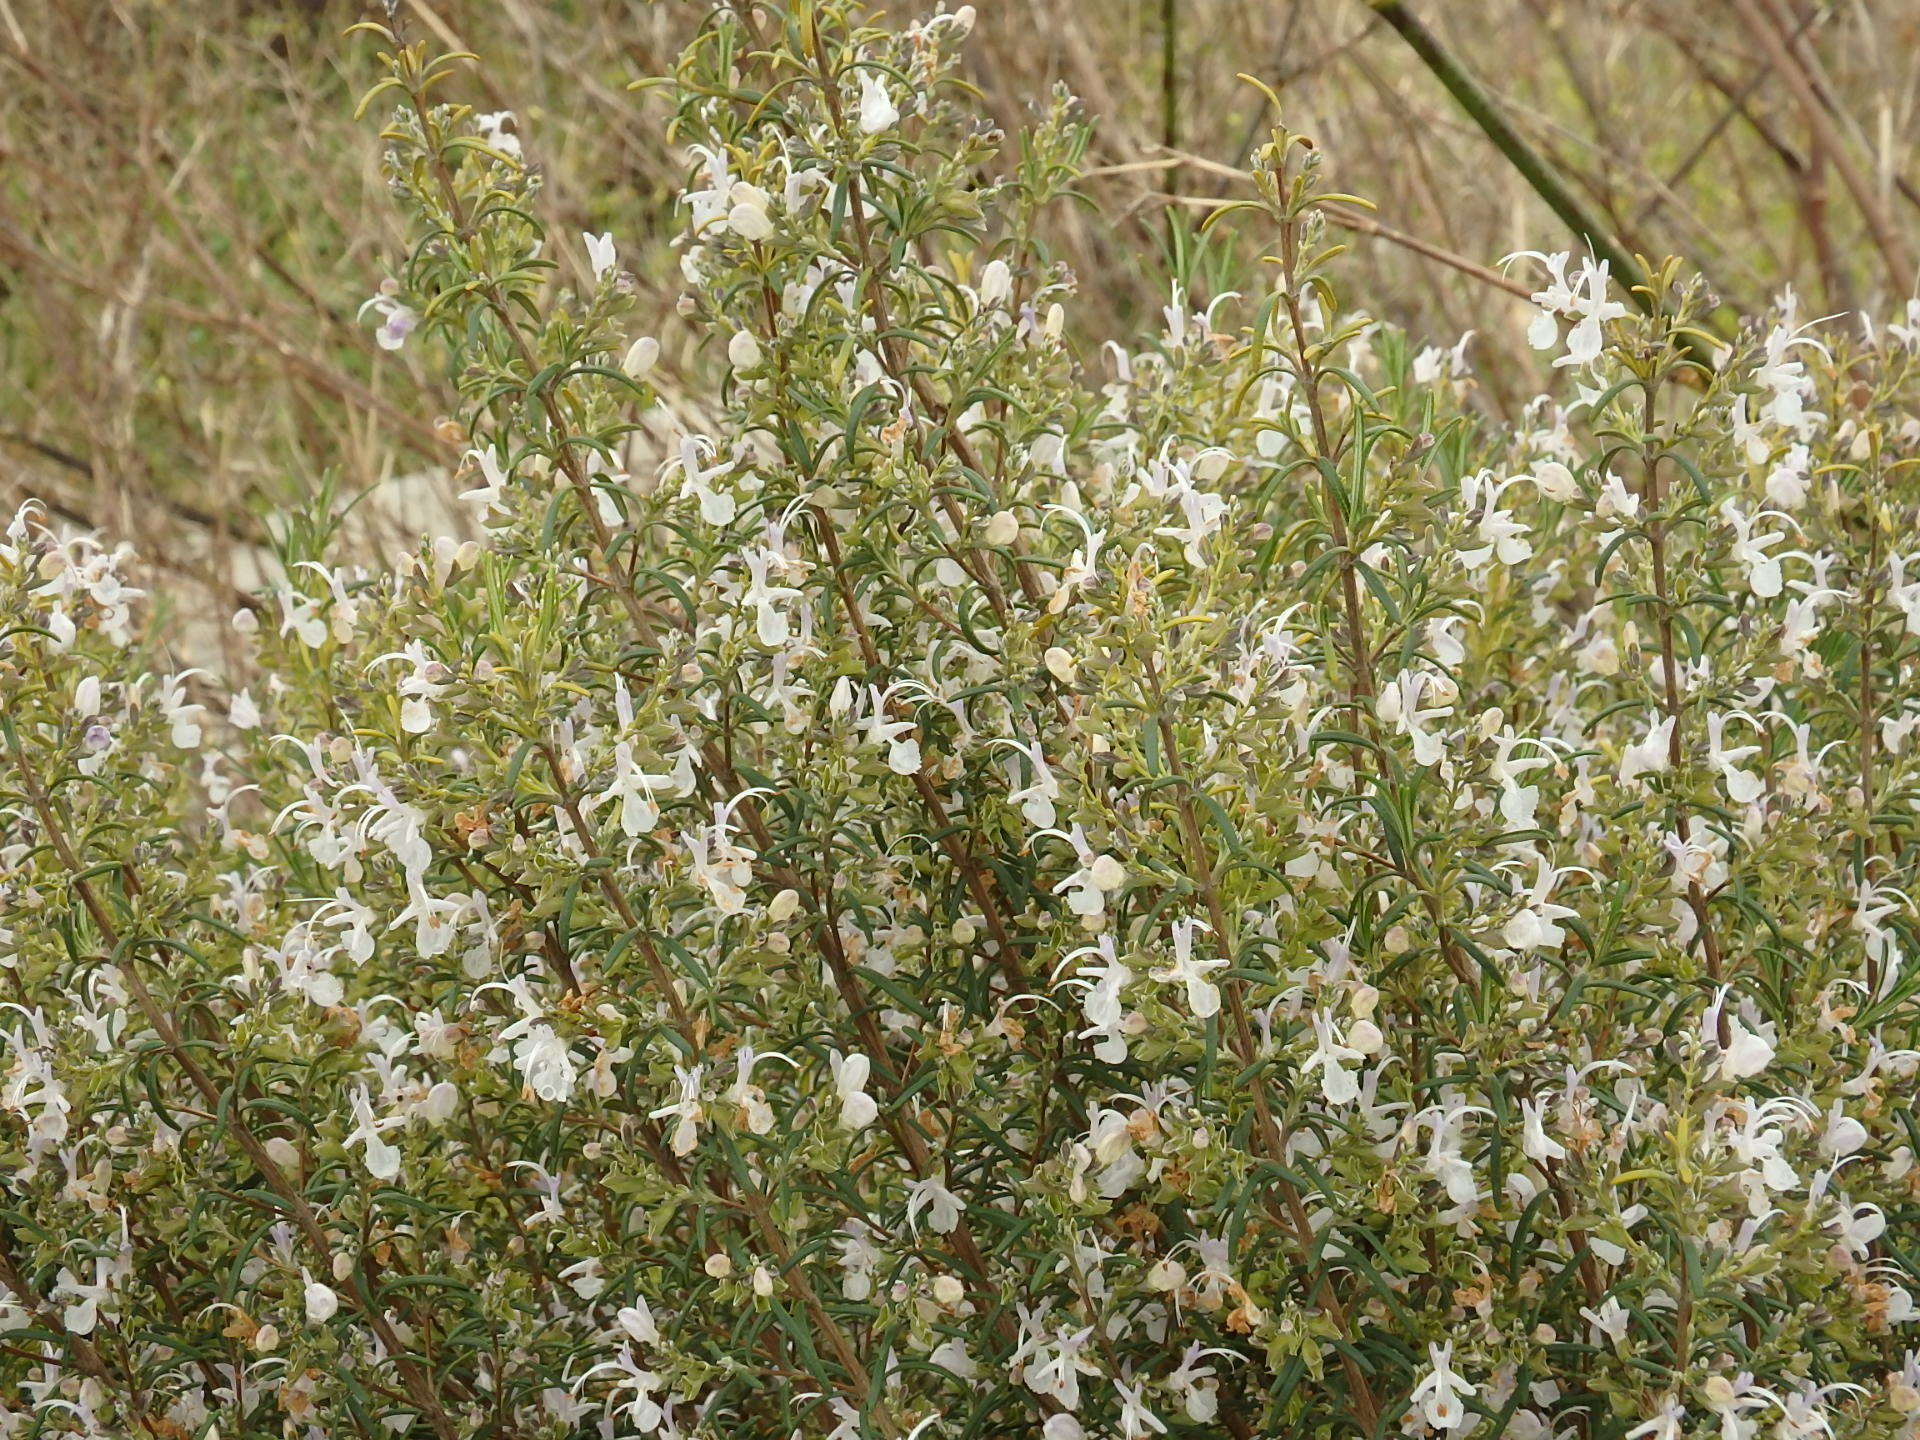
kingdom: Plantae
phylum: Tracheophyta
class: Magnoliopsida
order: Lamiales
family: Lamiaceae
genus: Salvia
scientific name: Salvia rosmarinus
